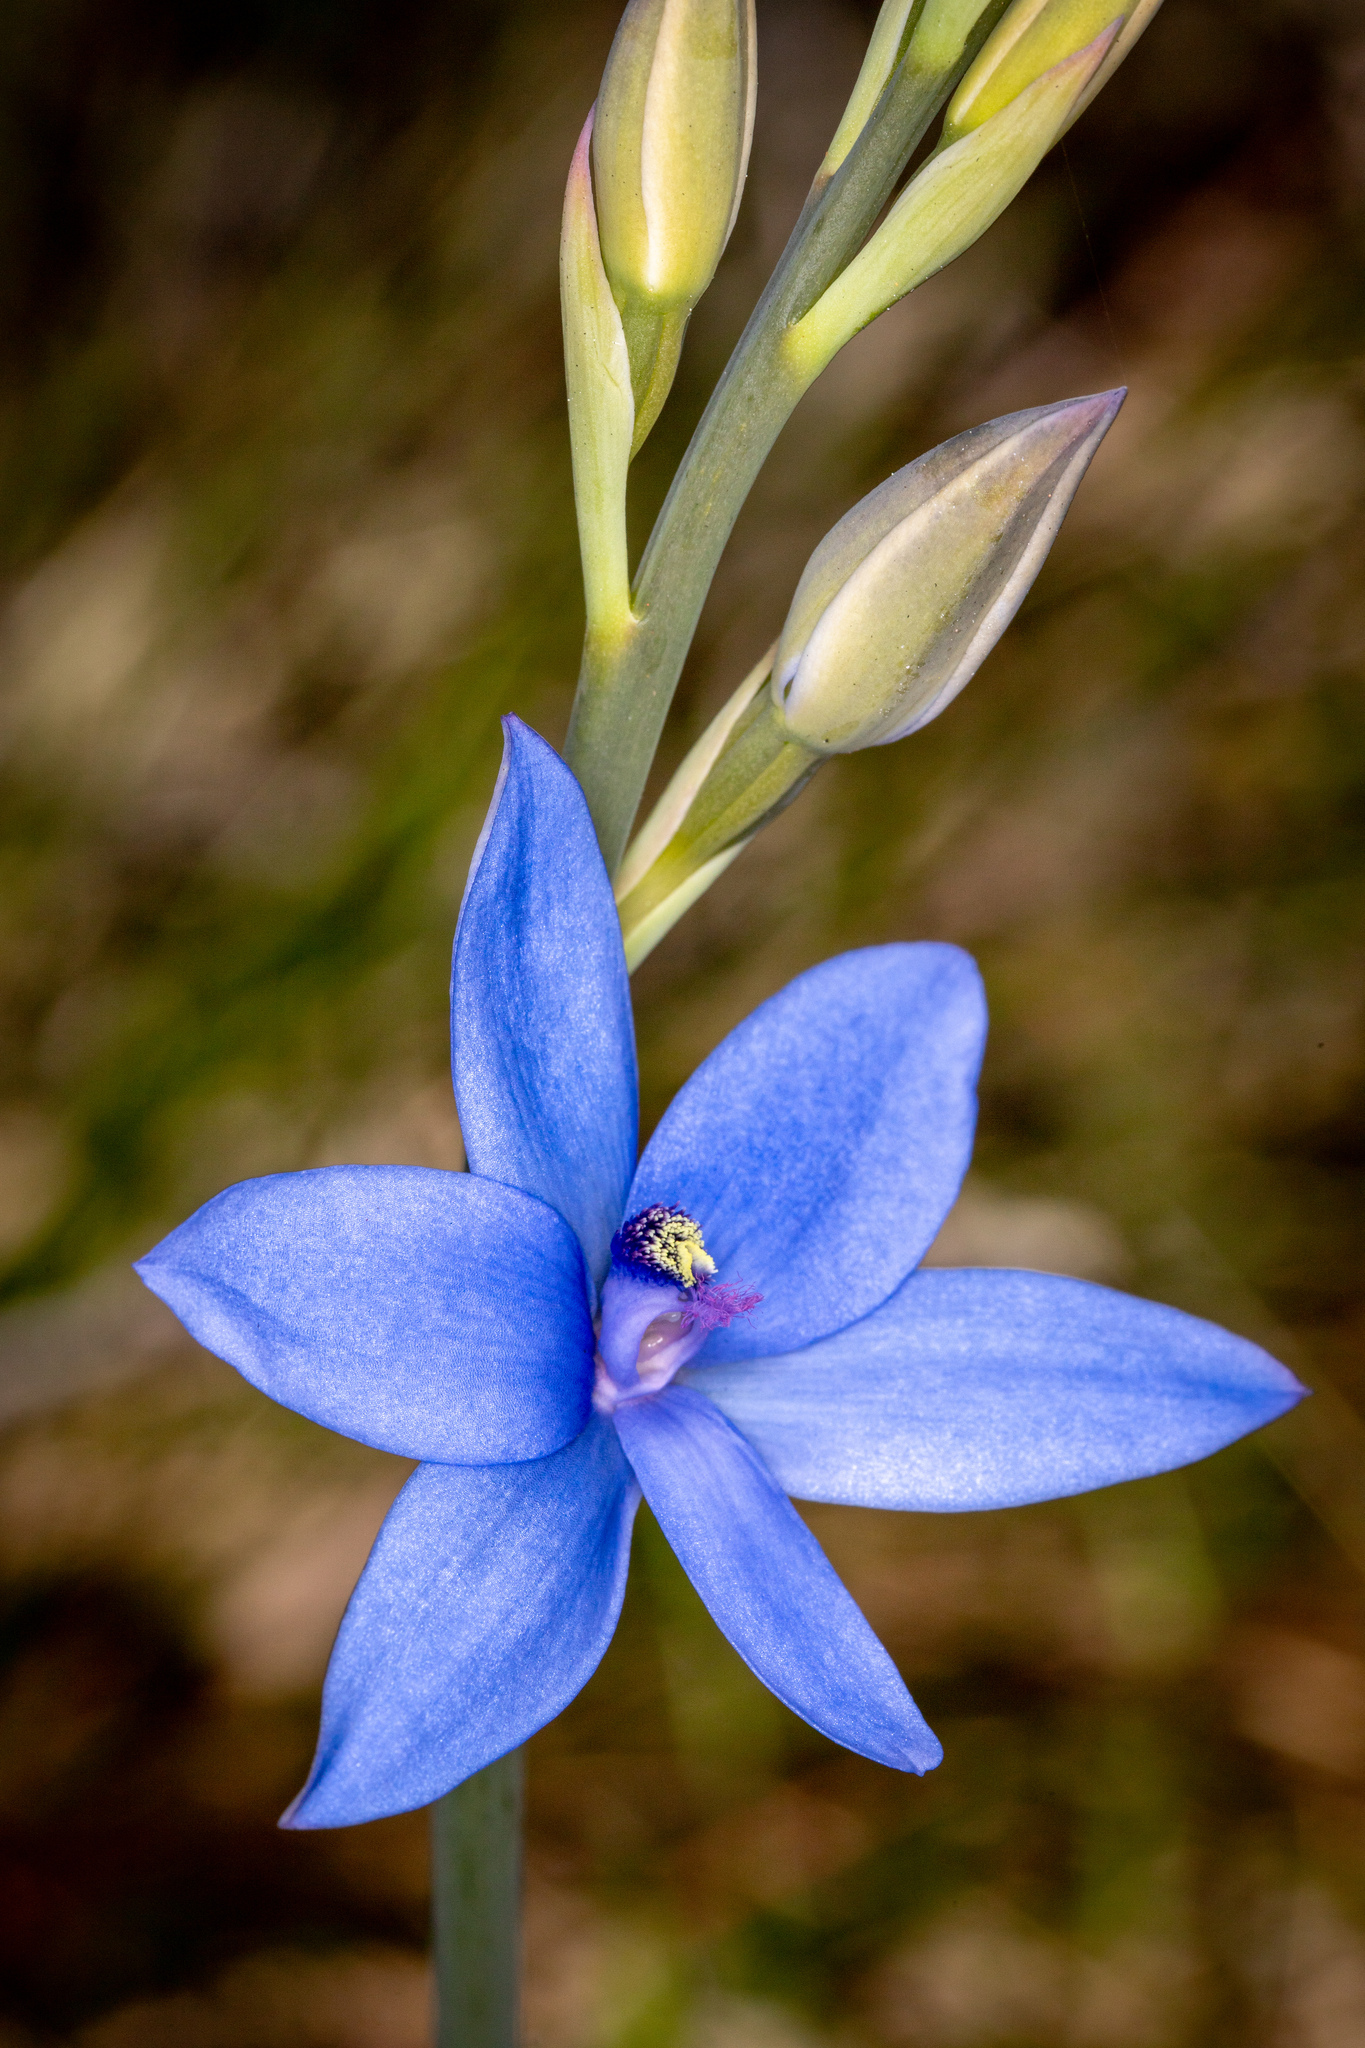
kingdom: Plantae
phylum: Tracheophyta
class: Liliopsida
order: Asparagales
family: Orchidaceae
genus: Thelymitra
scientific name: Thelymitra crinita
